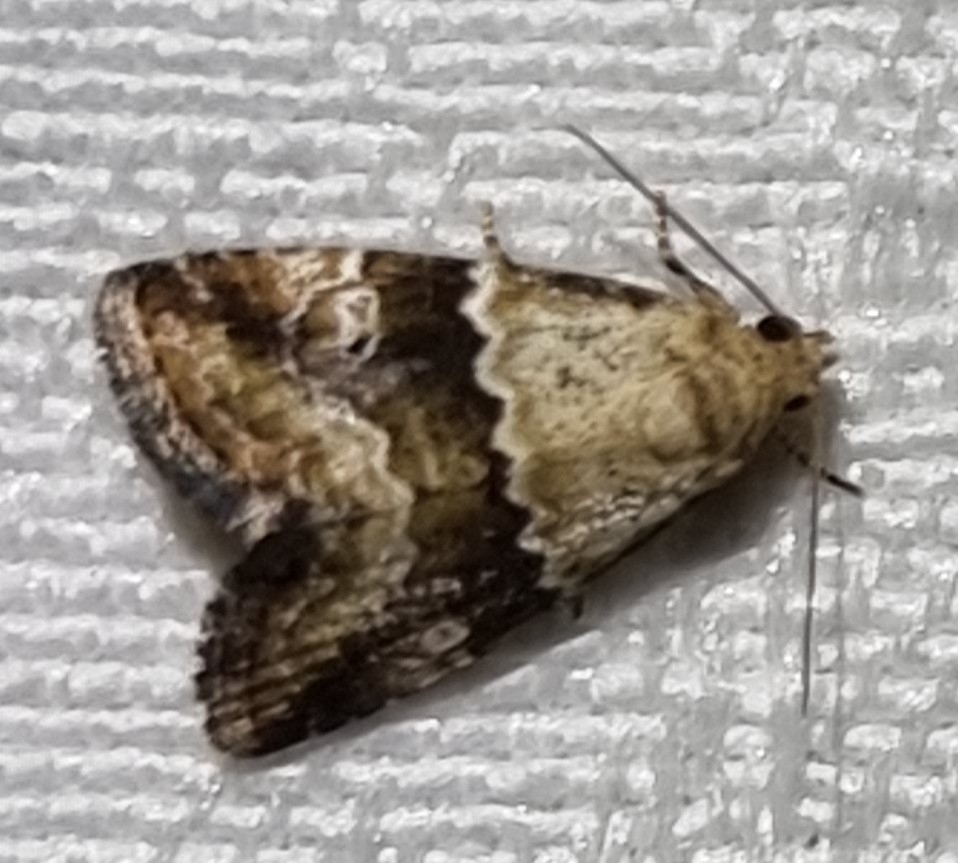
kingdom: Animalia
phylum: Arthropoda
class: Insecta
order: Lepidoptera
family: Noctuidae
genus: Maliattha
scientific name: Maliattha amorpha
